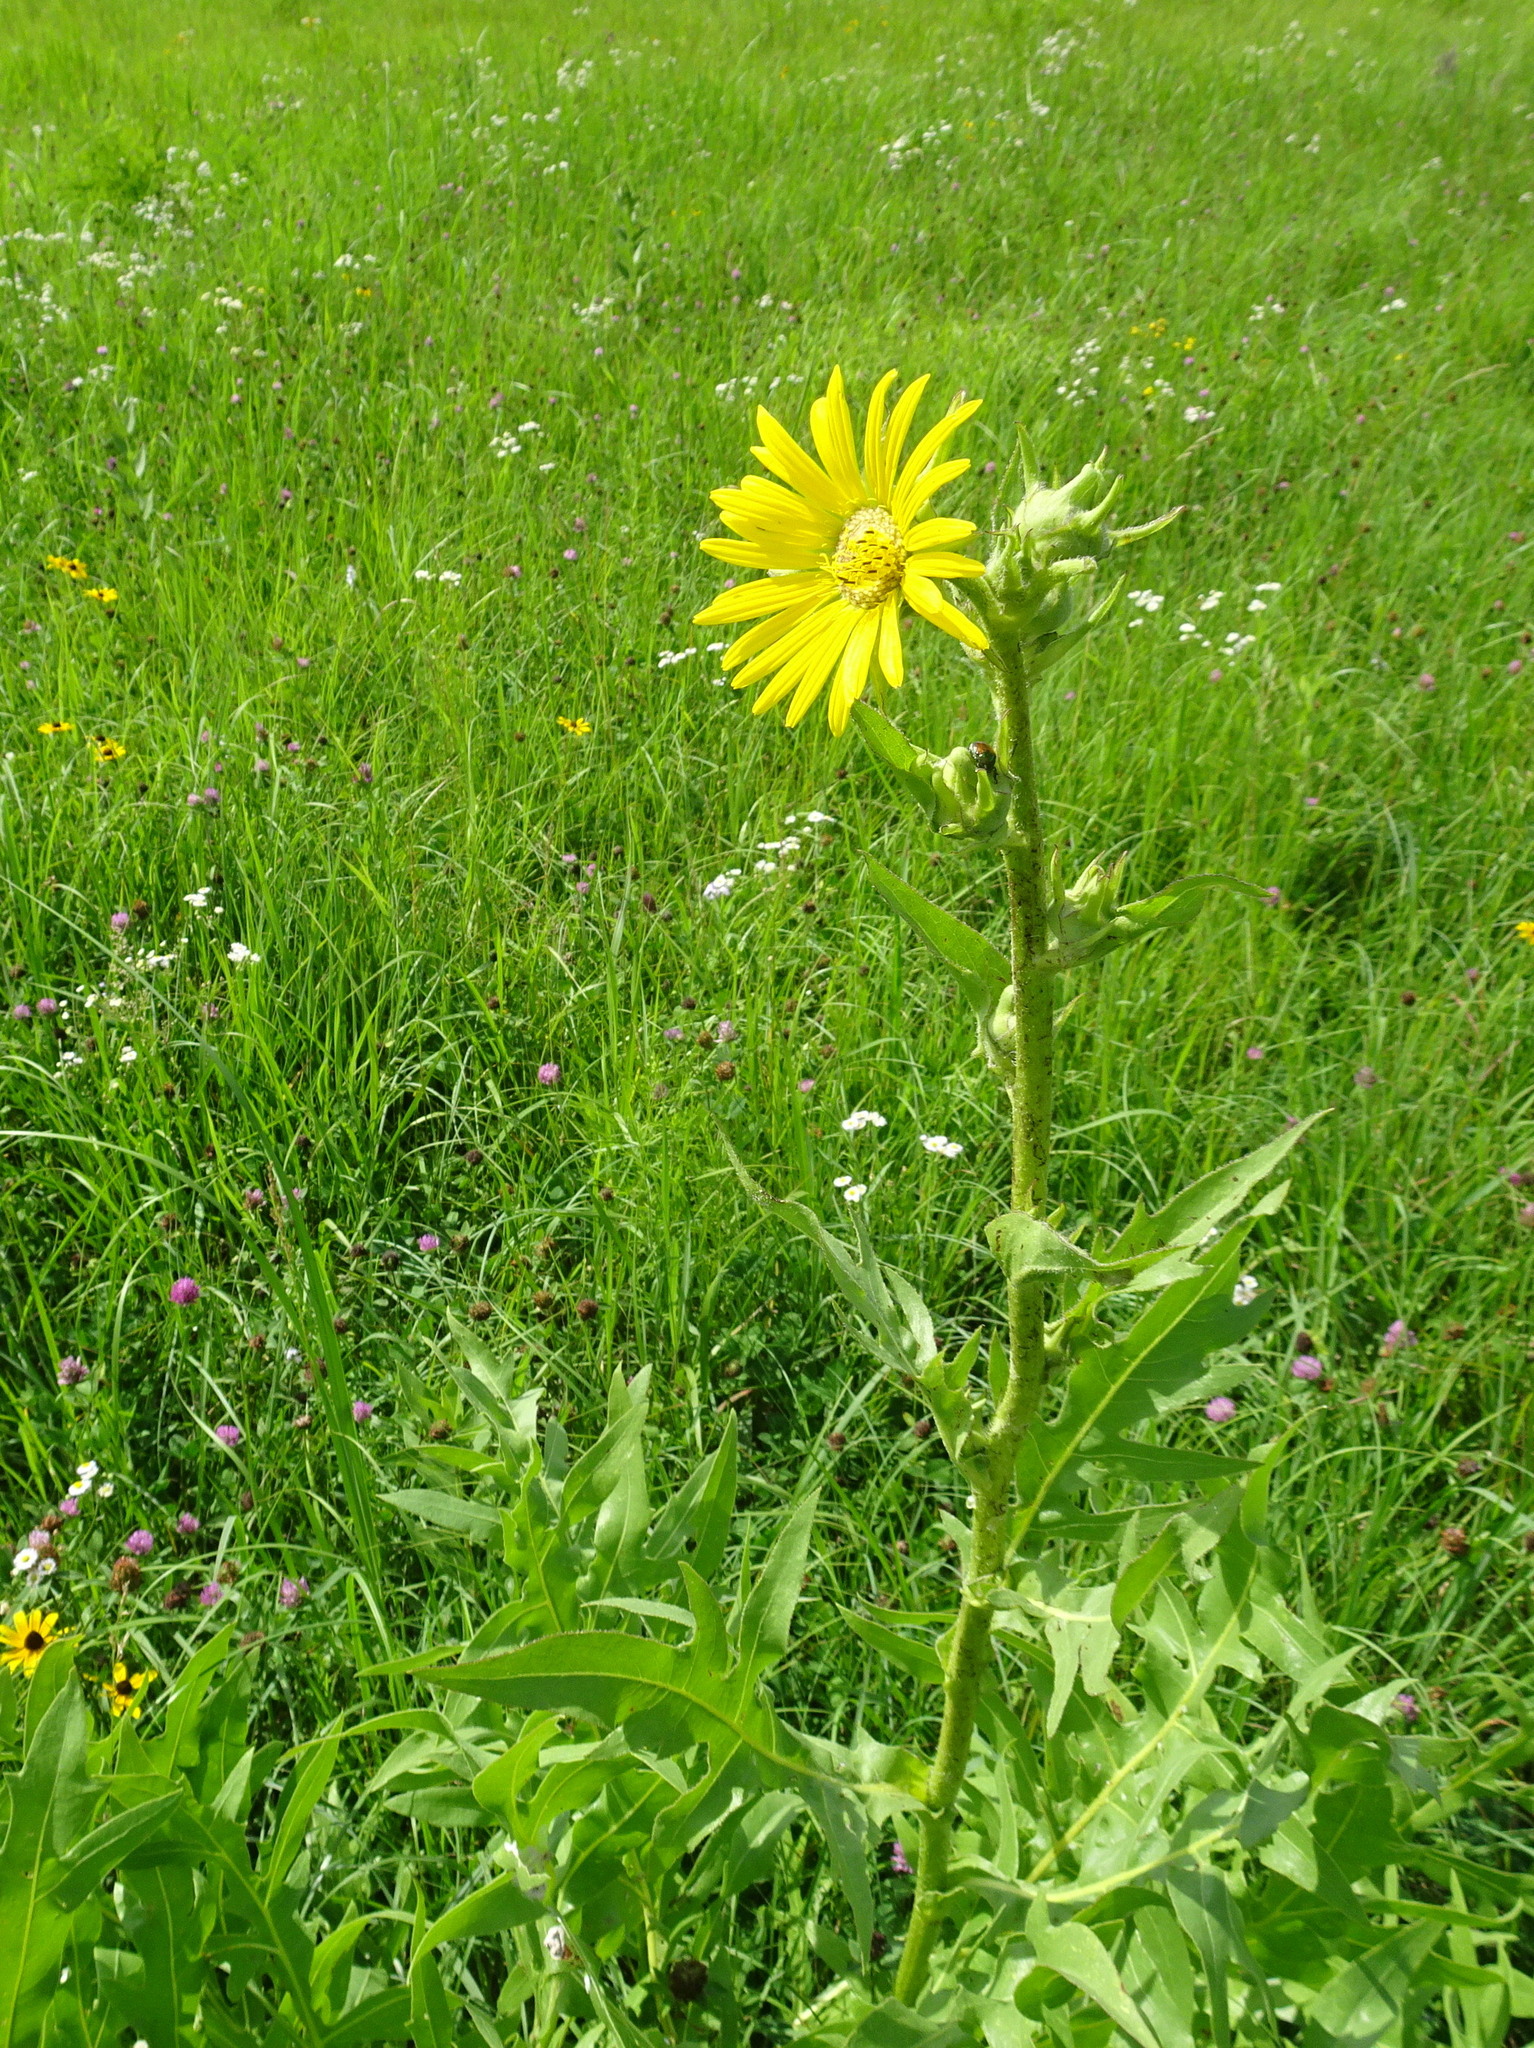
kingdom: Plantae
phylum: Tracheophyta
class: Magnoliopsida
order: Asterales
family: Asteraceae
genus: Silphium
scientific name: Silphium laciniatum
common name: Polarplant
